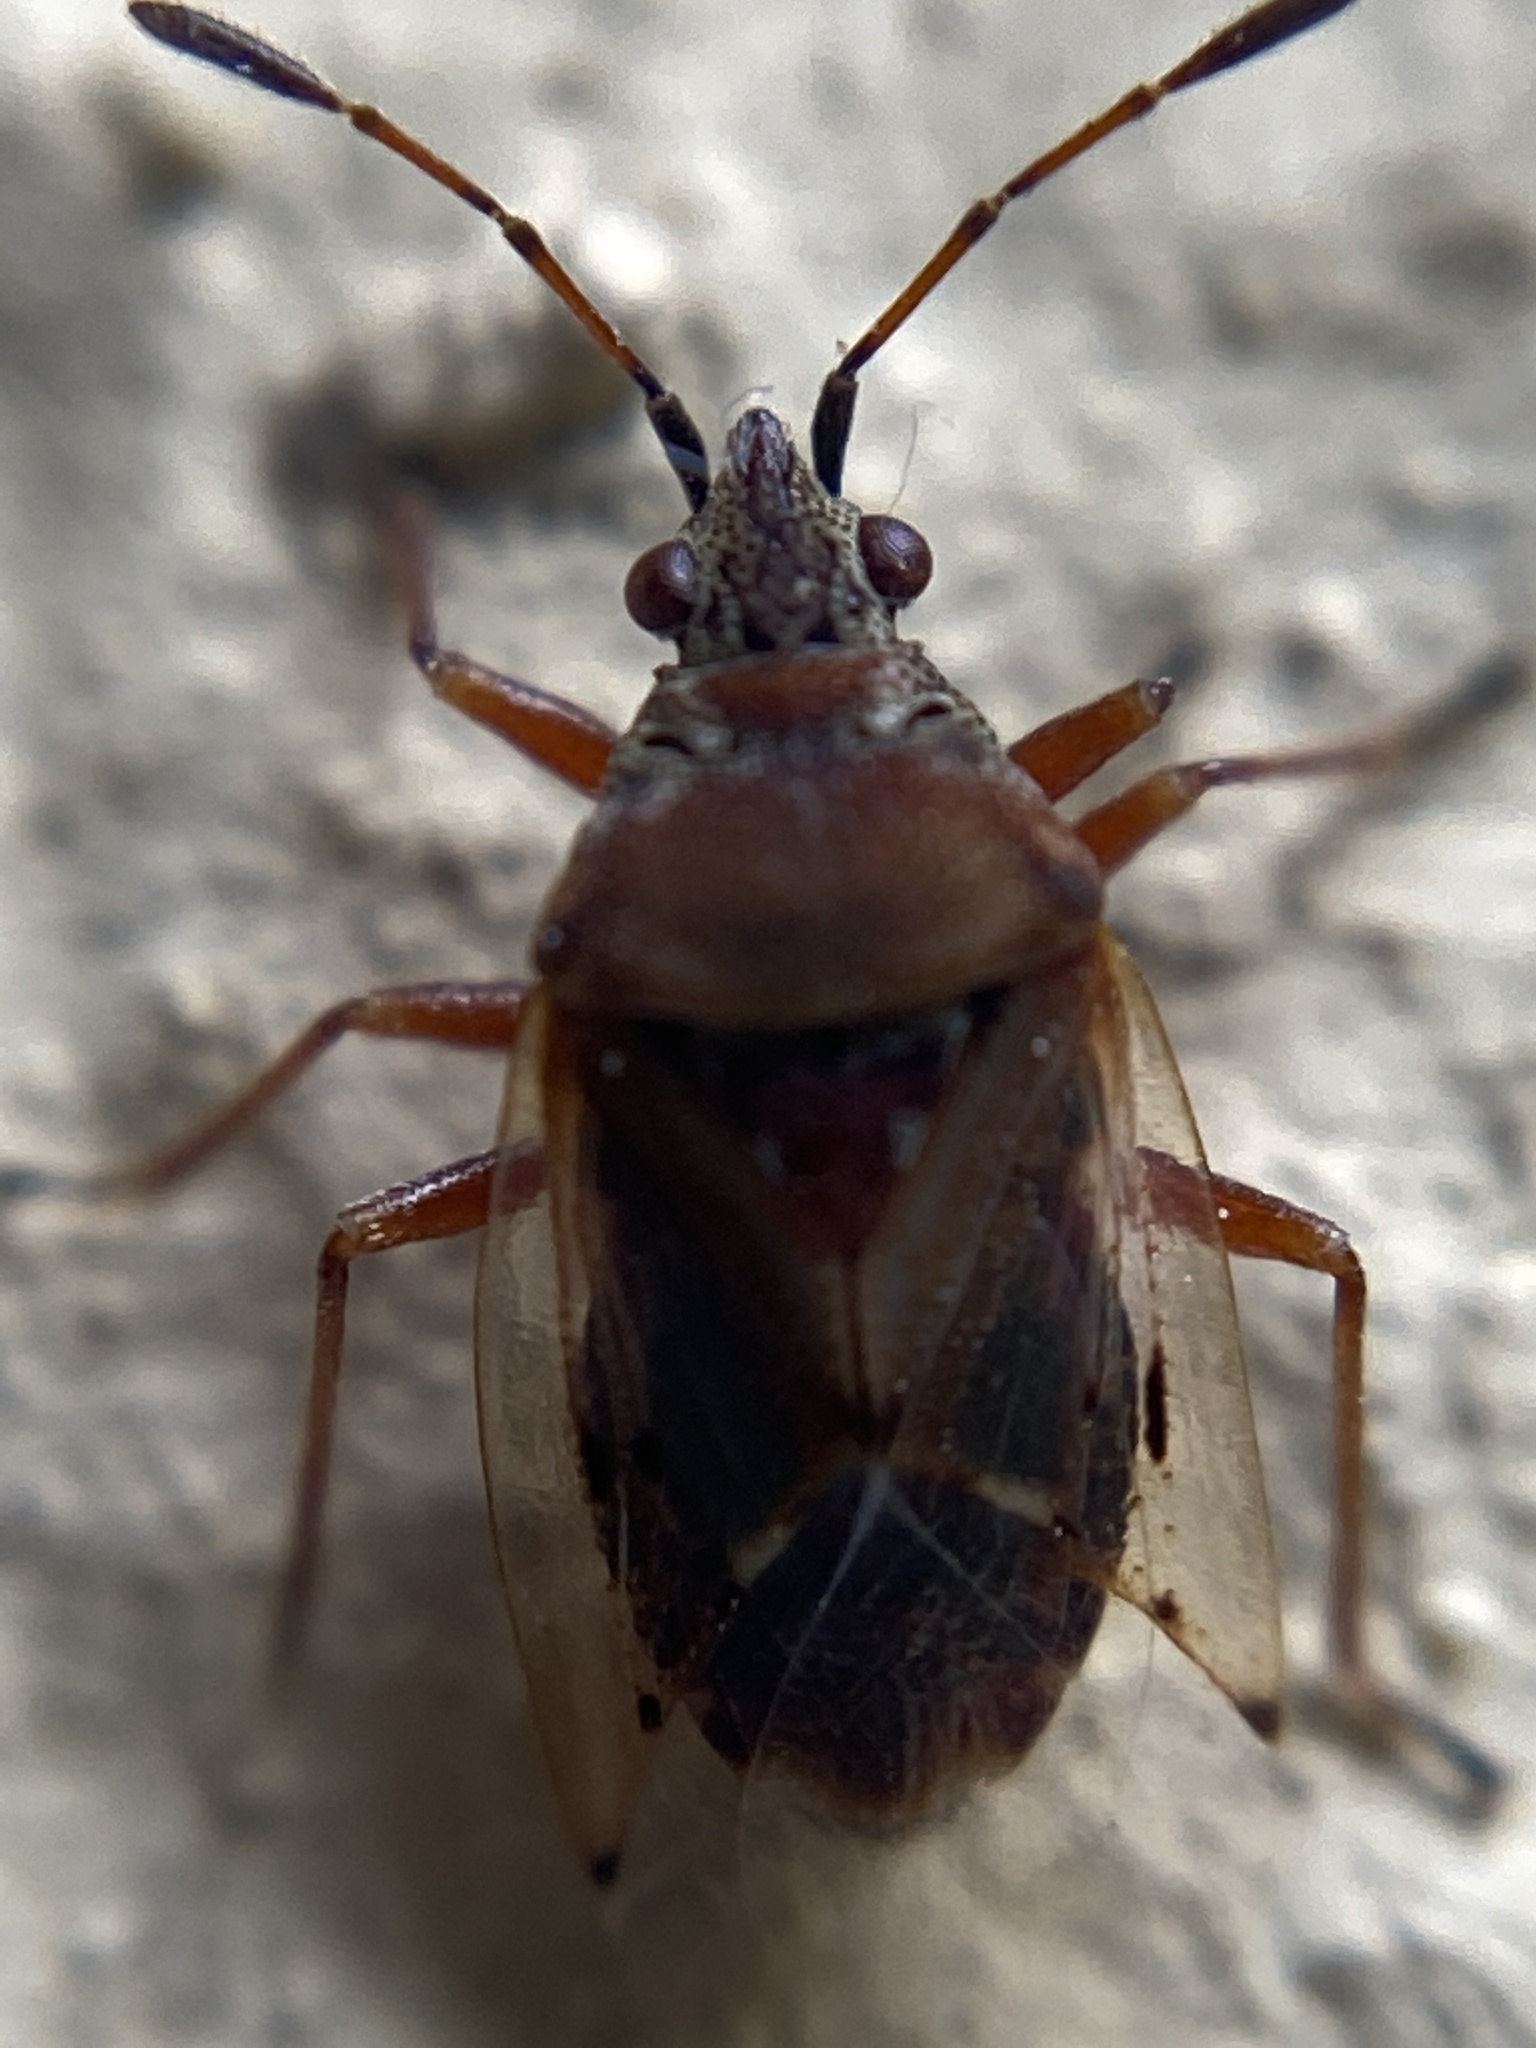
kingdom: Animalia
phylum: Arthropoda
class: Insecta
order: Hemiptera
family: Lygaeidae
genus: Kleidocerys
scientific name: Kleidocerys resedae
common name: Birch catkin bug
